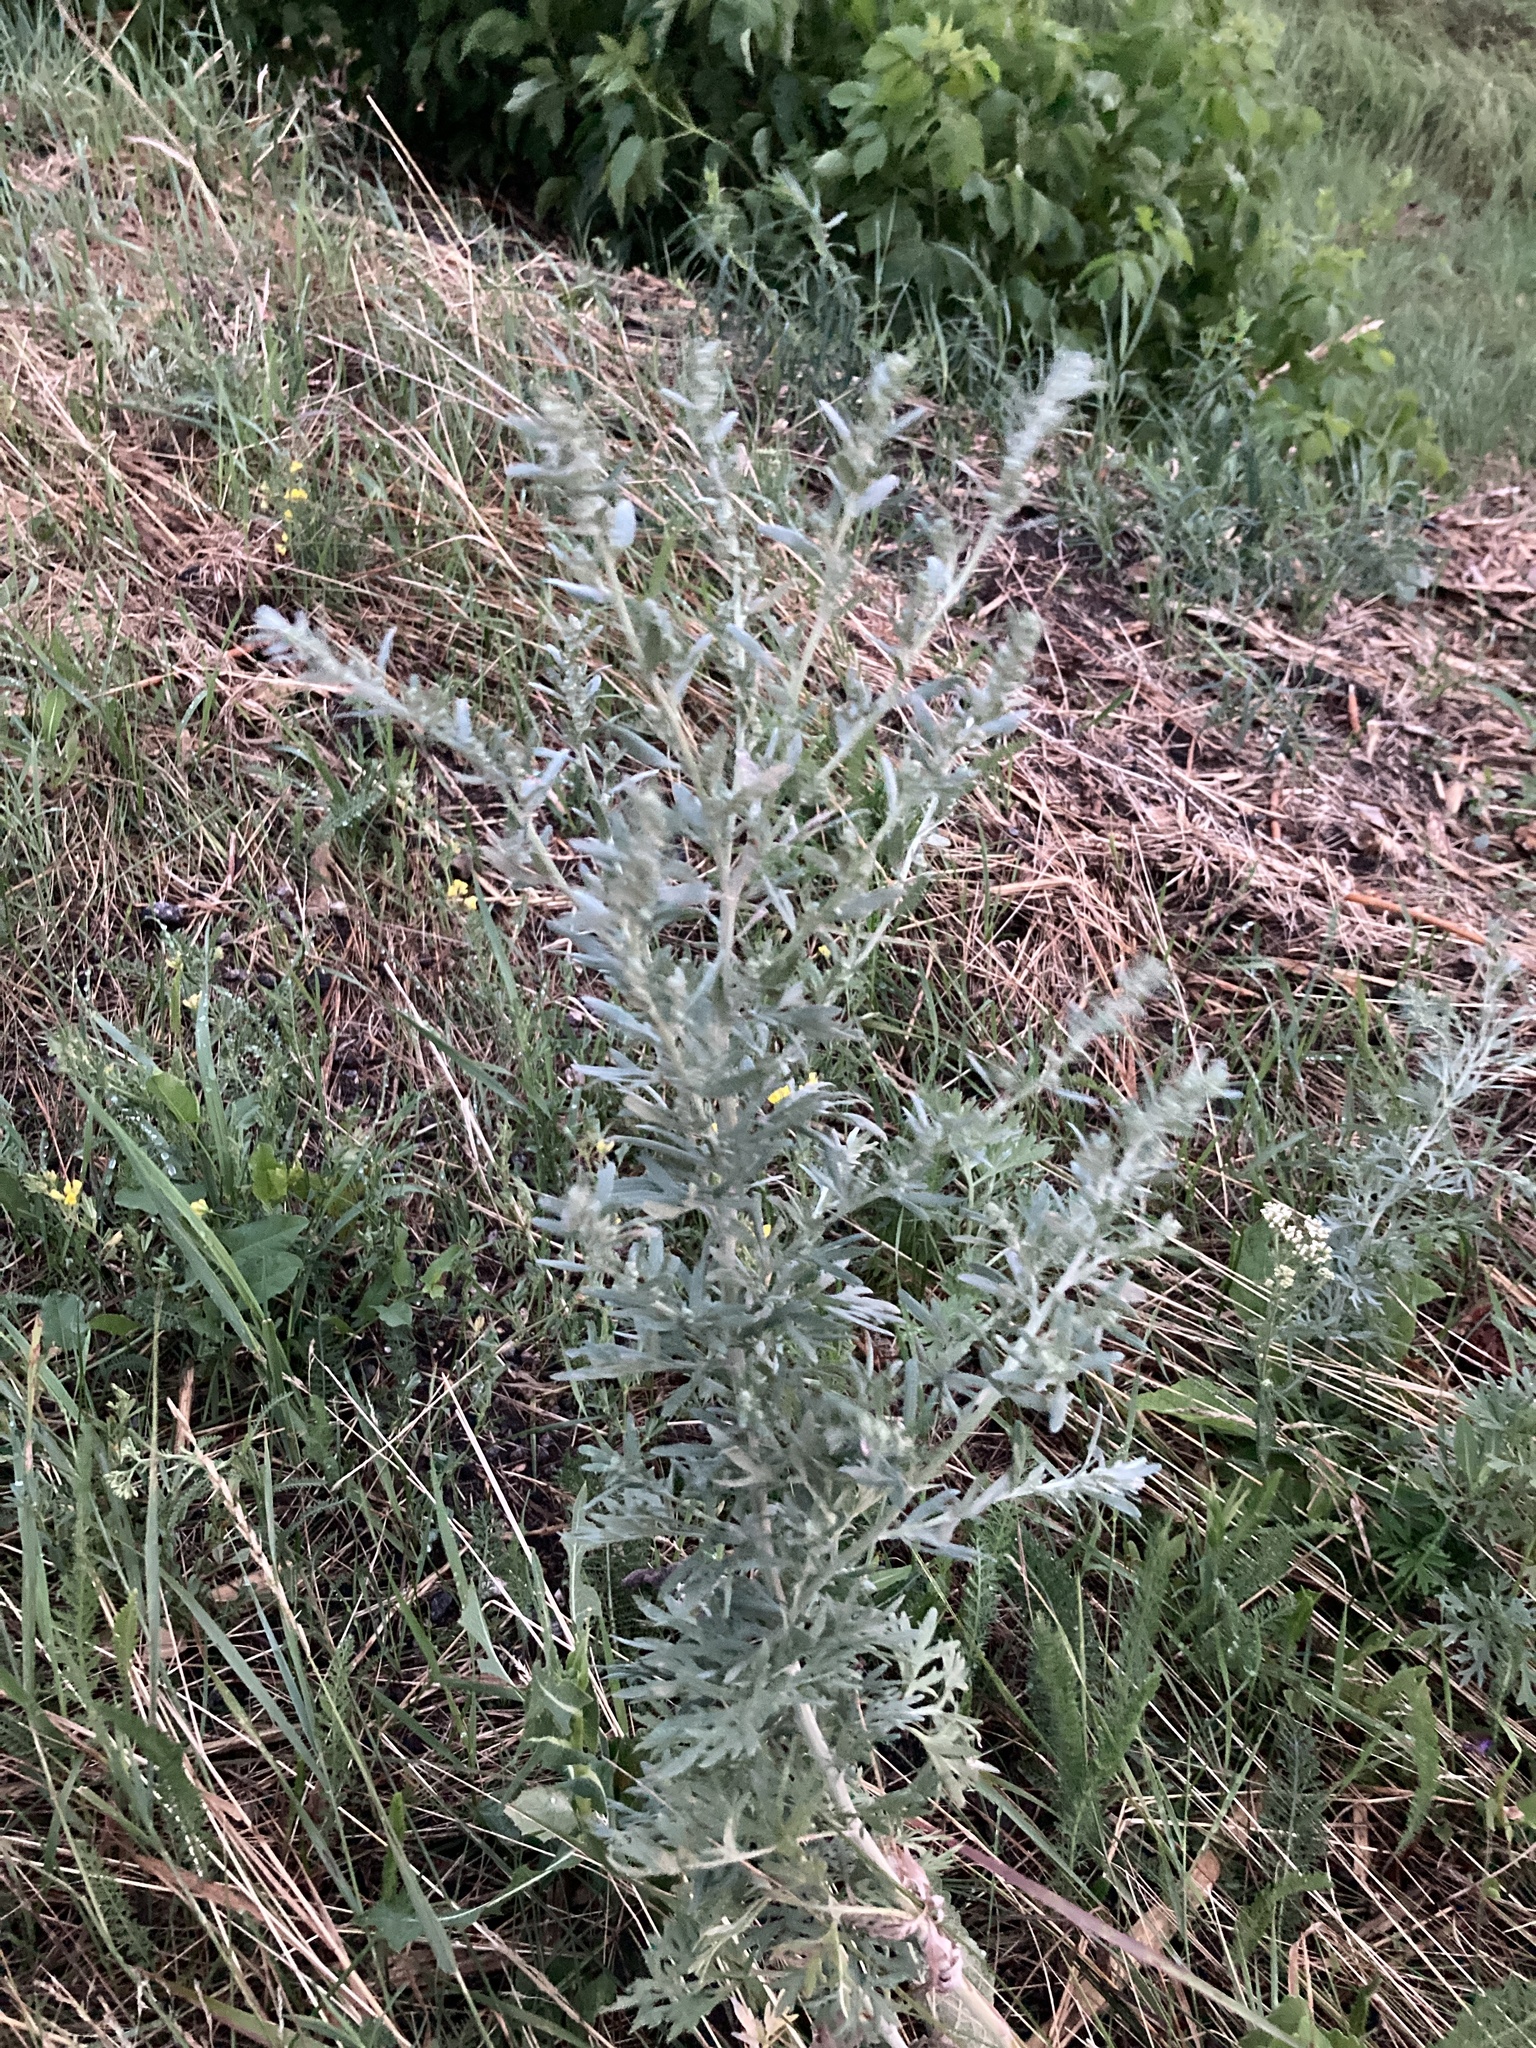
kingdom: Plantae
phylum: Tracheophyta
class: Magnoliopsida
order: Asterales
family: Asteraceae
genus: Artemisia
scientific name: Artemisia absinthium
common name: Wormwood
